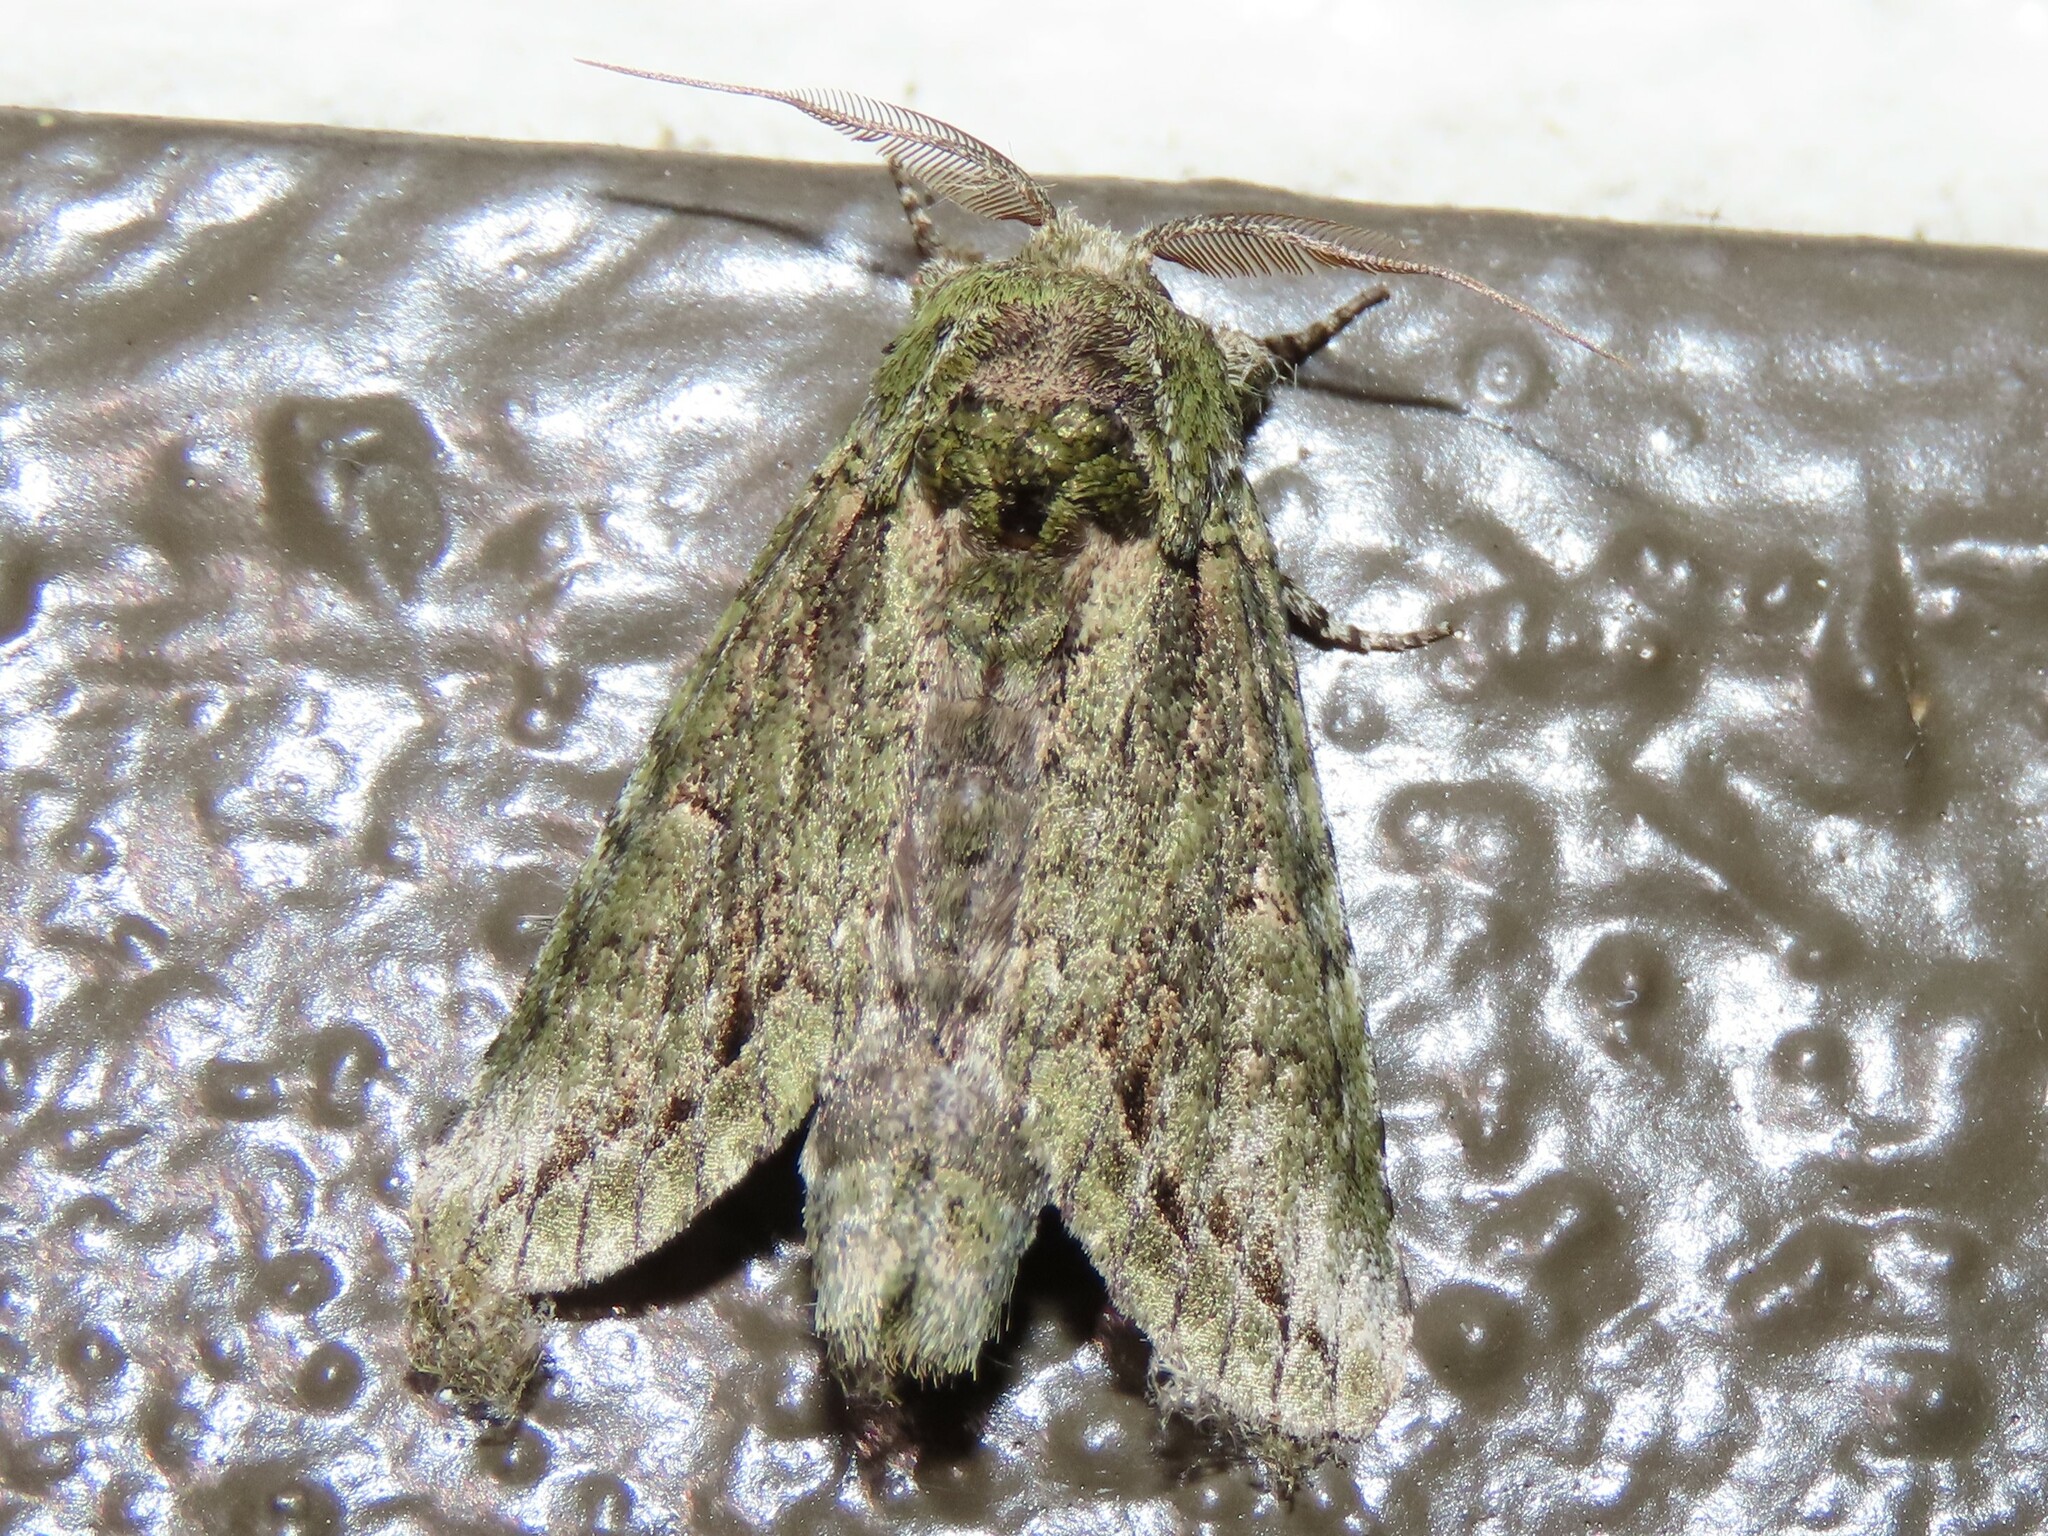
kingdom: Animalia
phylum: Arthropoda
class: Insecta
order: Lepidoptera
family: Notodontidae
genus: Heterocampa
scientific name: Heterocampa umbrata
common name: White-blotched heterocampa
